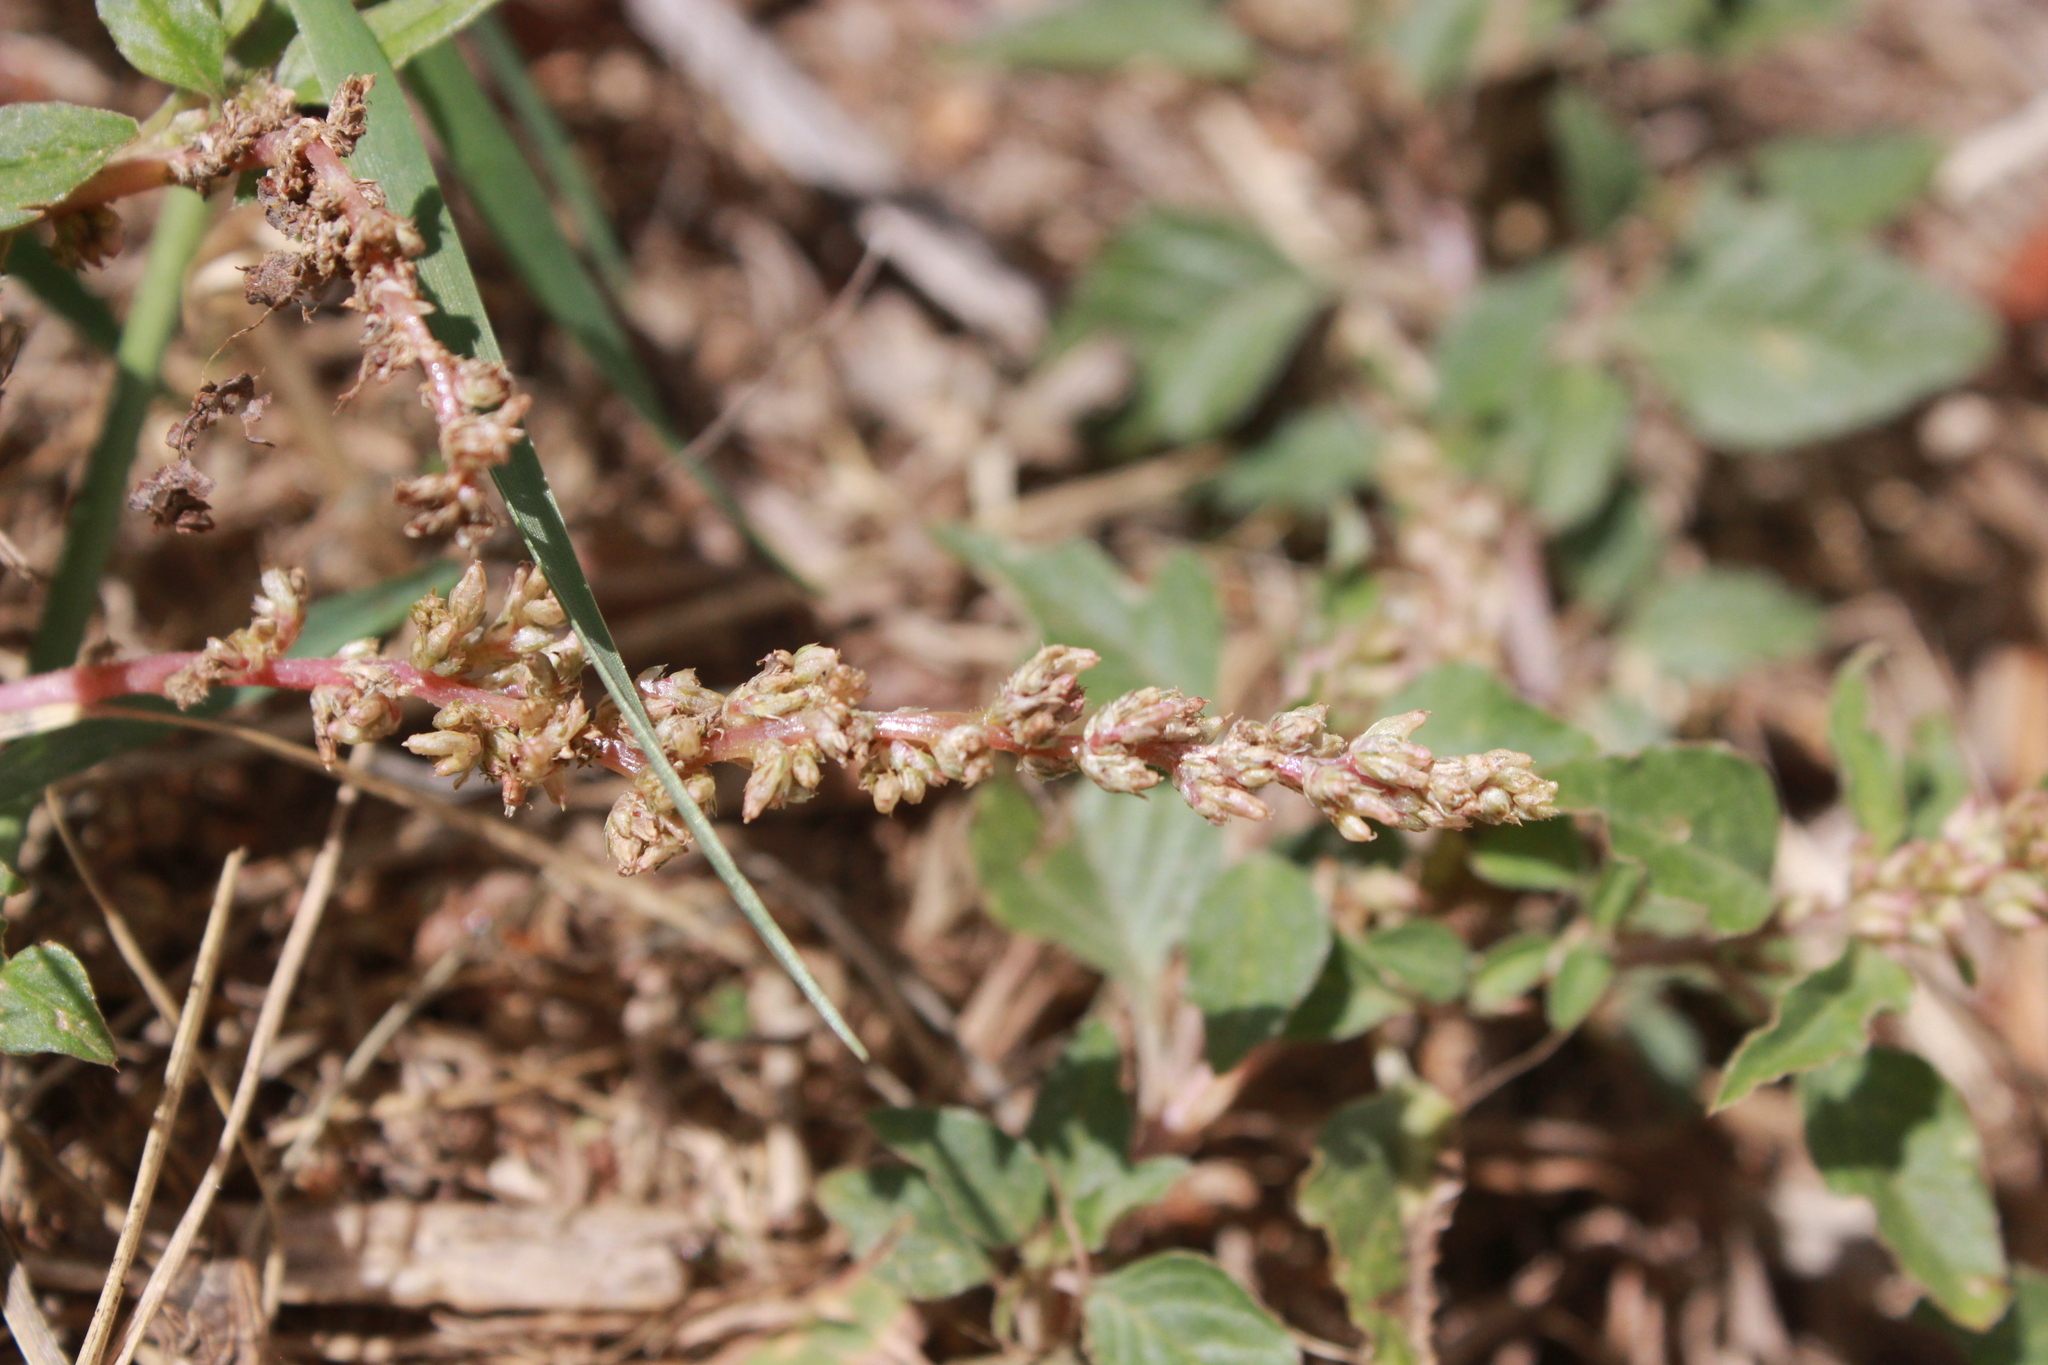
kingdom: Plantae
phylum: Tracheophyta
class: Magnoliopsida
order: Caryophyllales
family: Amaranthaceae
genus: Amaranthus
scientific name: Amaranthus deflexus
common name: Perennial pigweed
